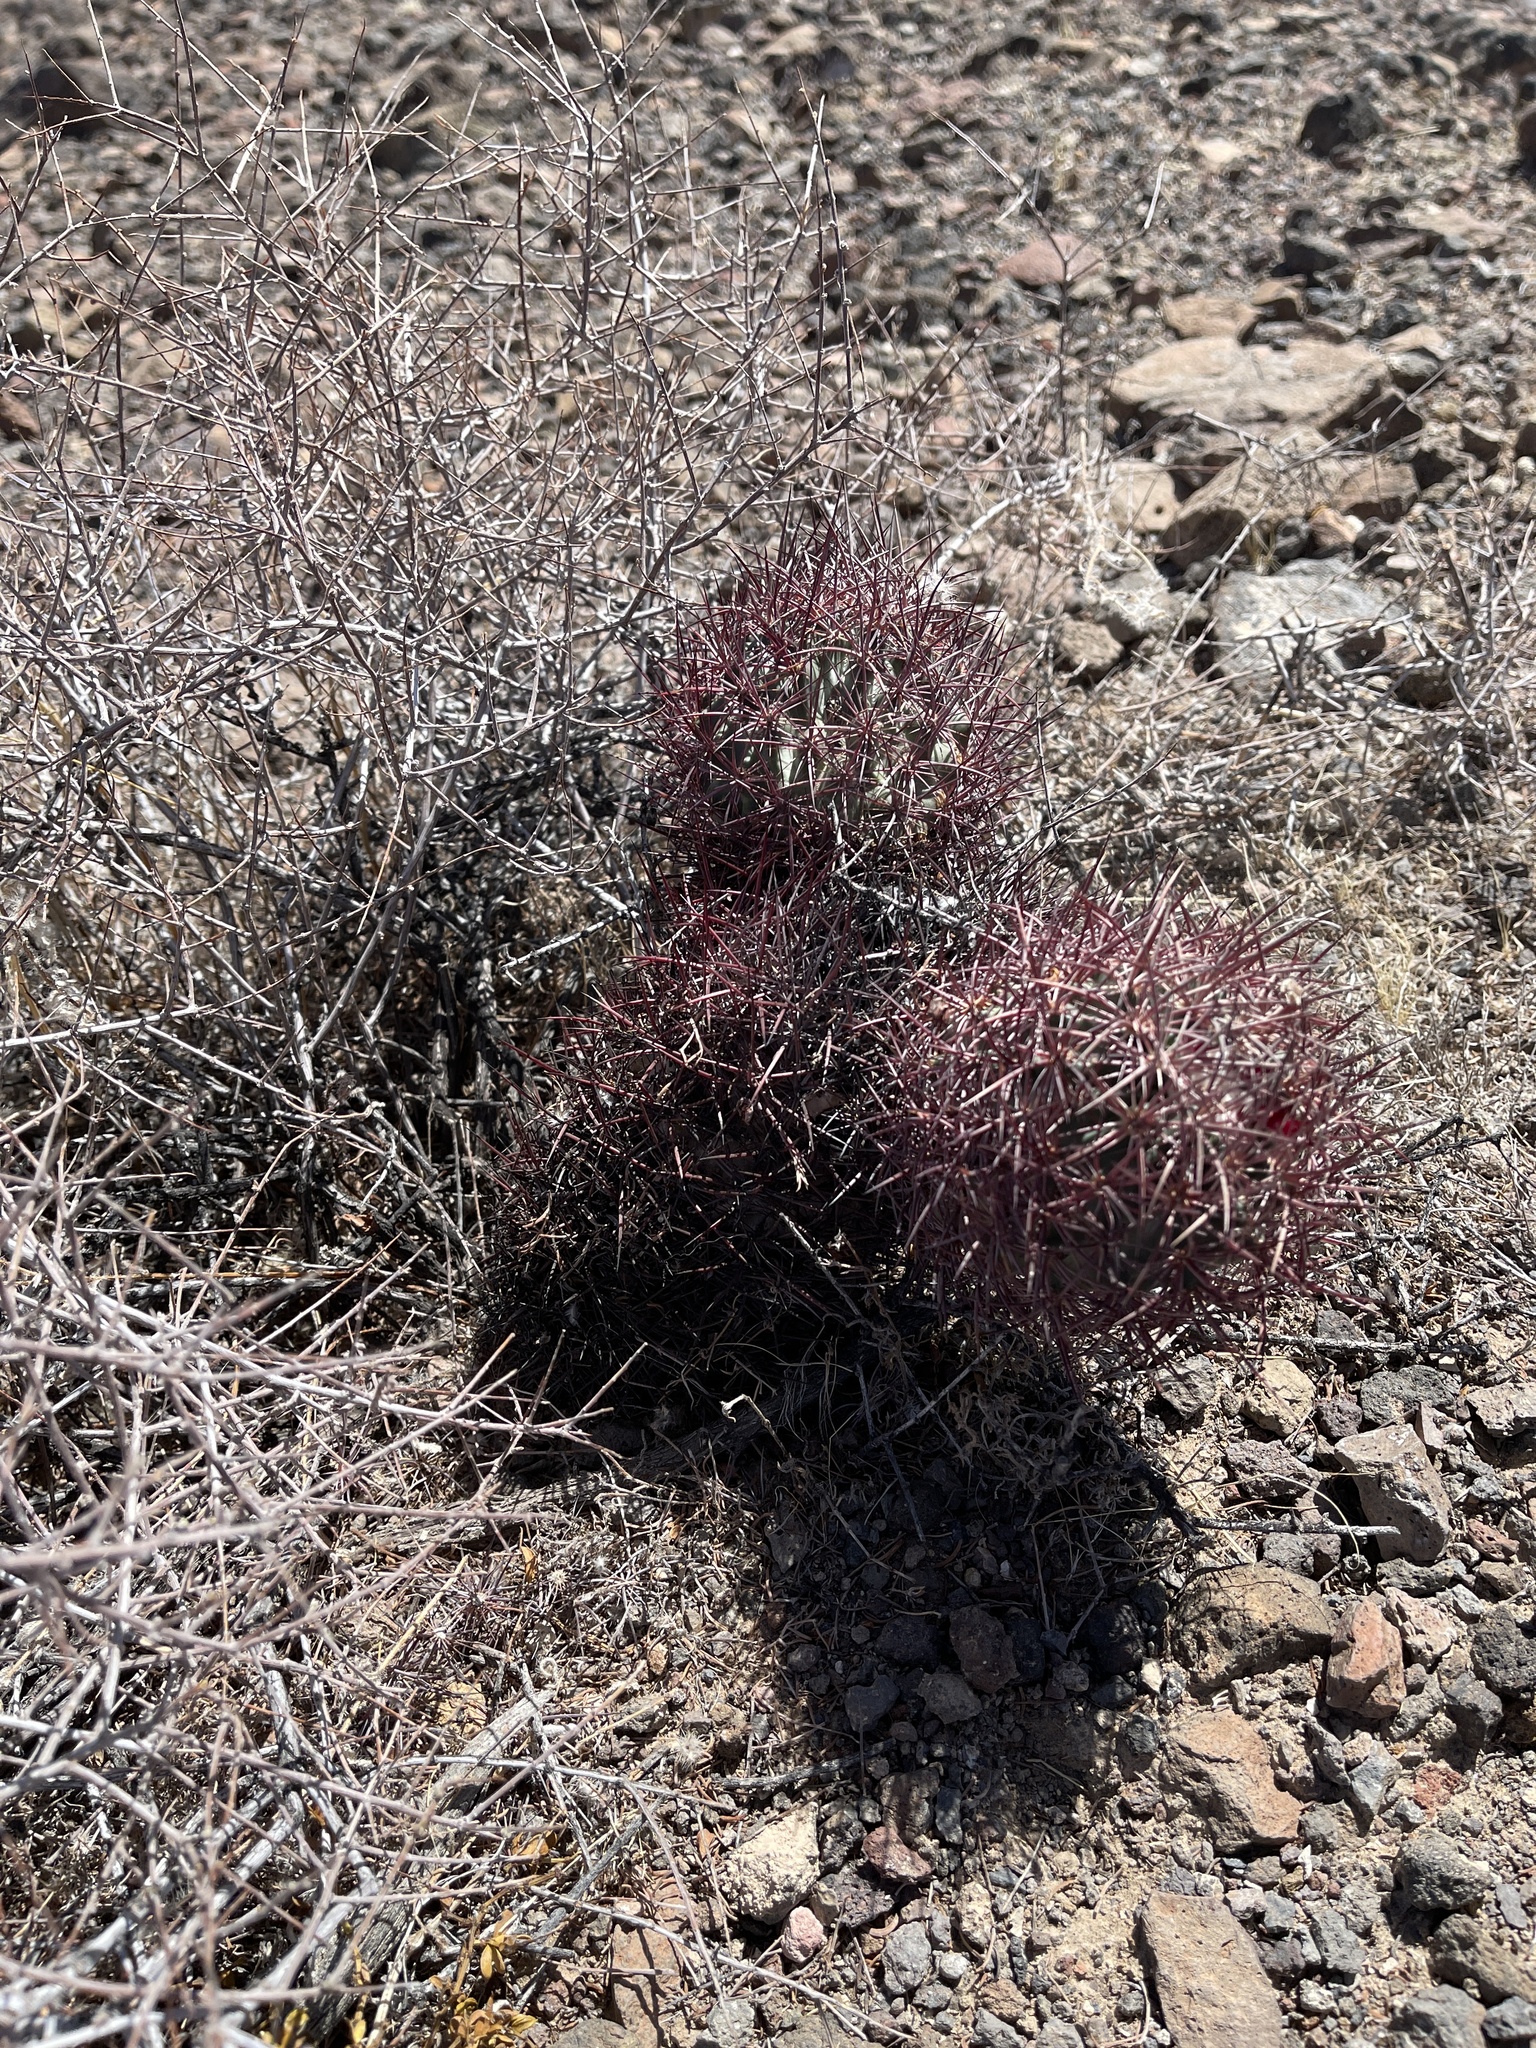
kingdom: Plantae
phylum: Tracheophyta
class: Magnoliopsida
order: Caryophyllales
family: Cactaceae
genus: Sclerocactus
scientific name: Sclerocactus johnsonii
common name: Eight-spine fishhook cactus
